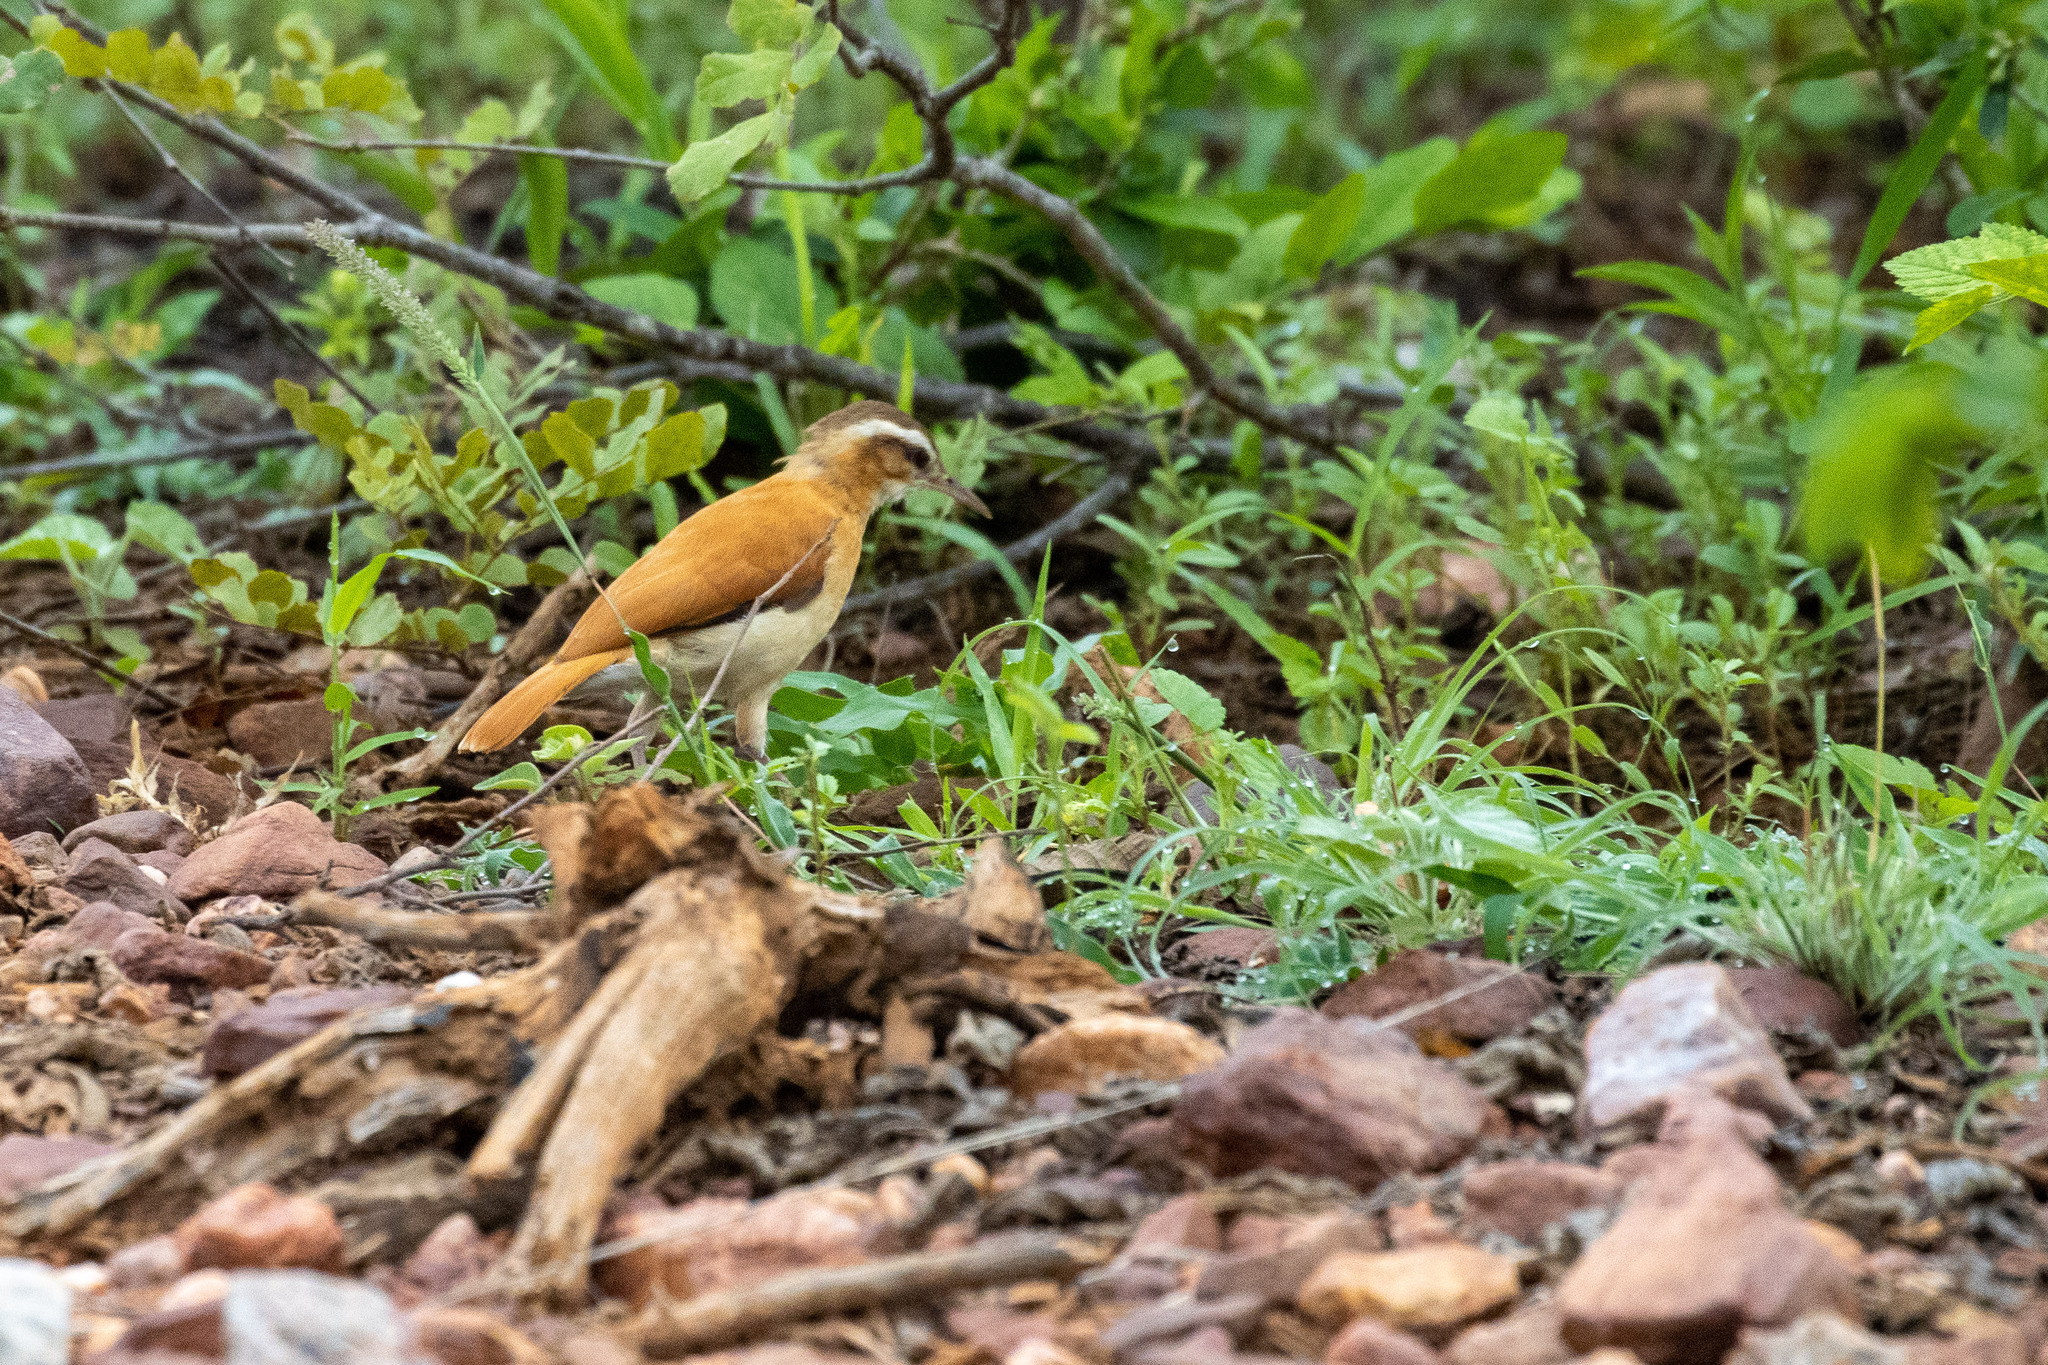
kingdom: Animalia
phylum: Chordata
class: Aves
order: Passeriformes
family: Furnariidae
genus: Furnarius
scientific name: Furnarius leucopus
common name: Pale-legged hornero
